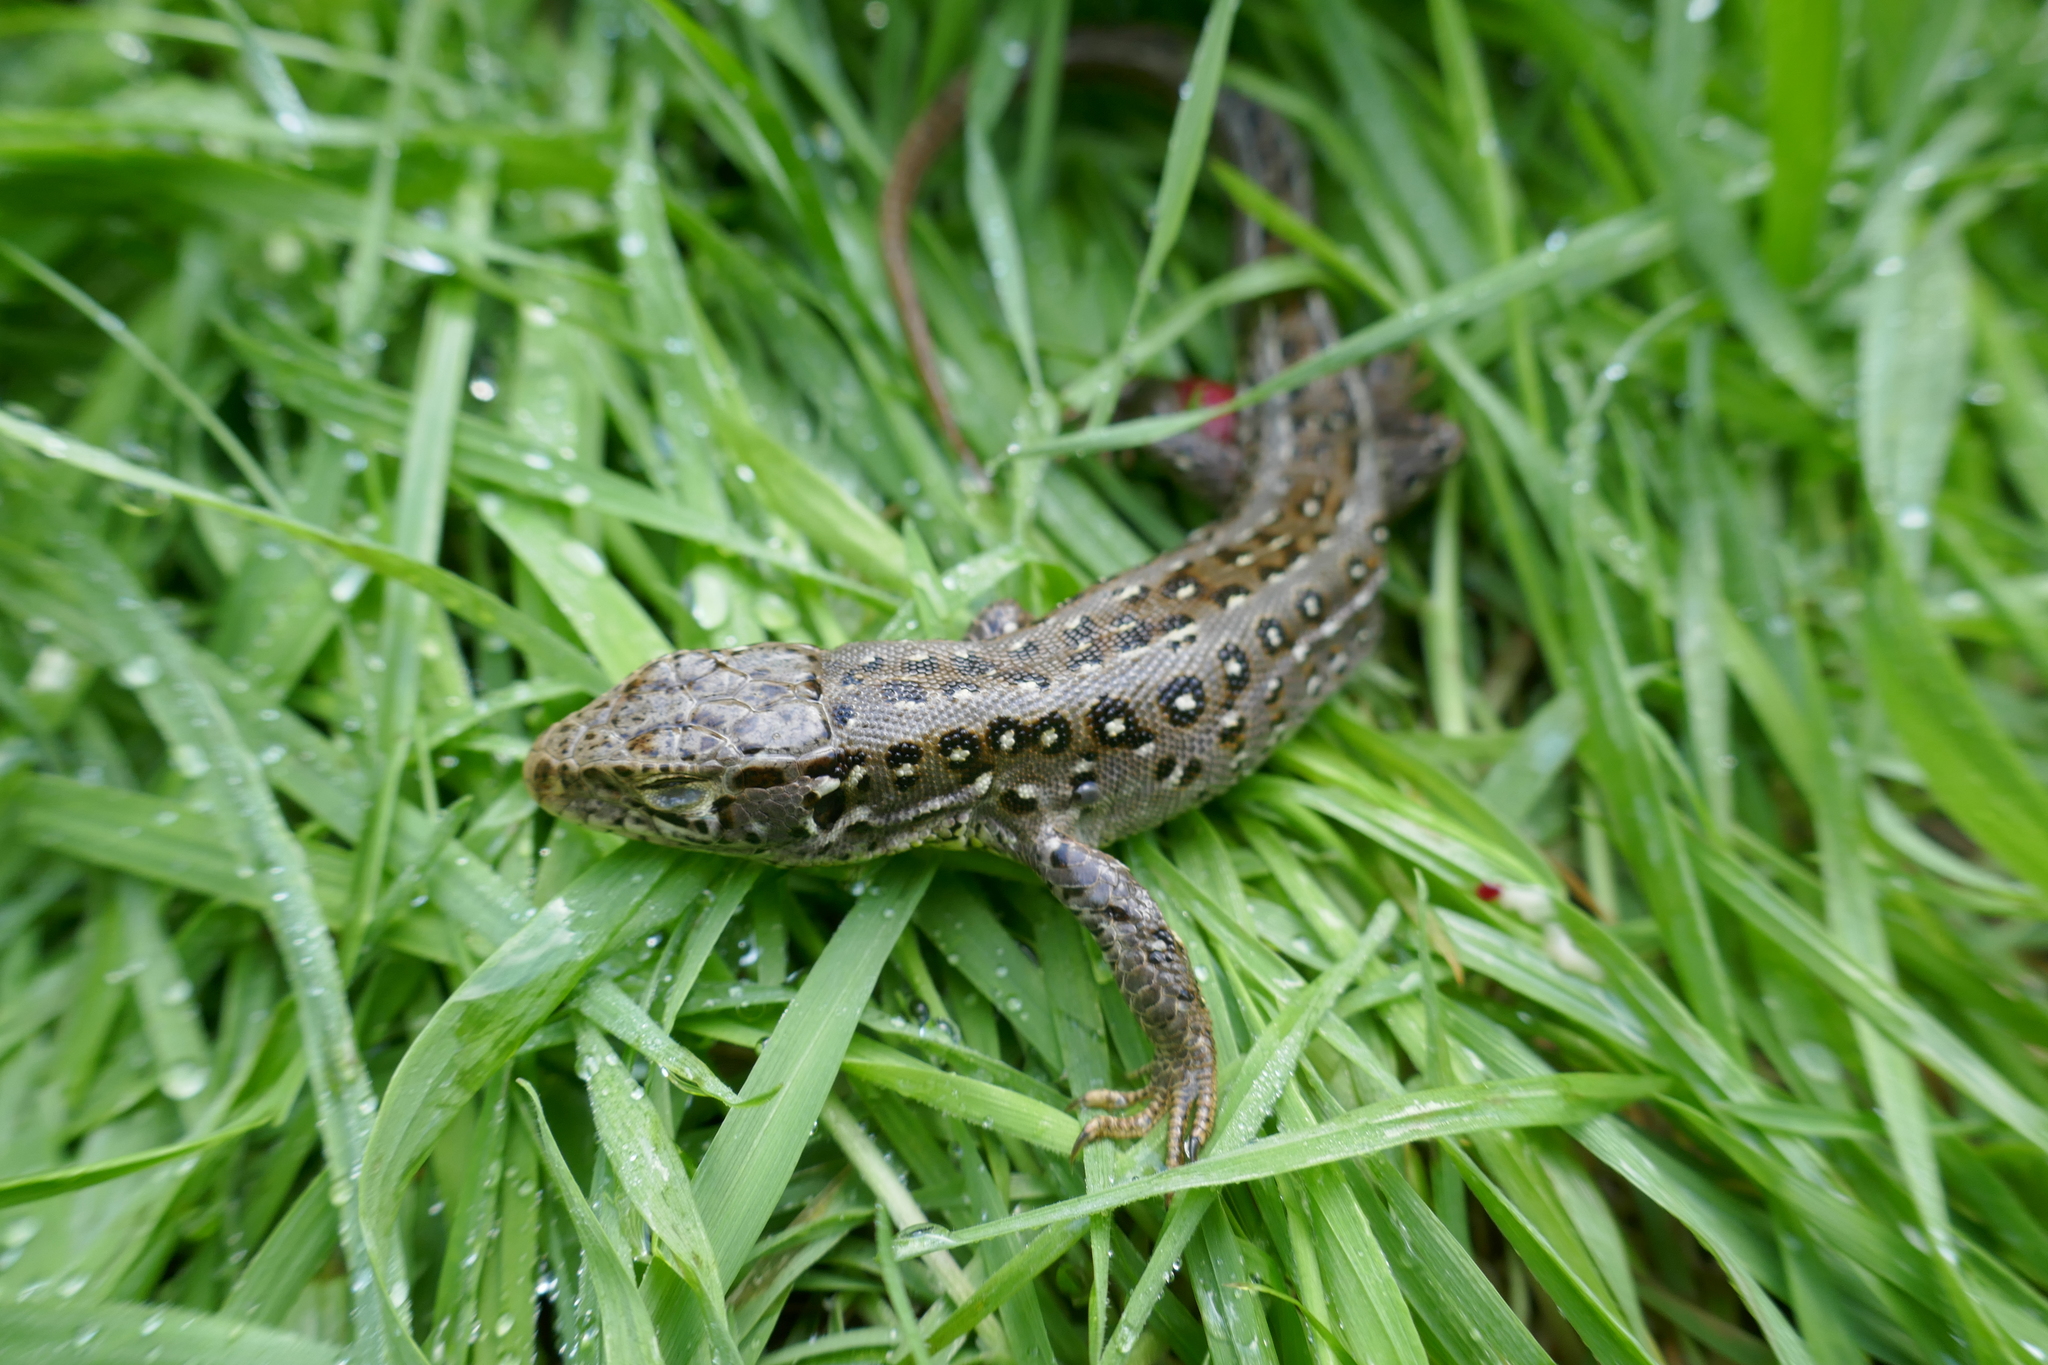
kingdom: Animalia
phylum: Chordata
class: Squamata
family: Lacertidae
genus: Lacerta
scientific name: Lacerta agilis
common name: Sand lizard
